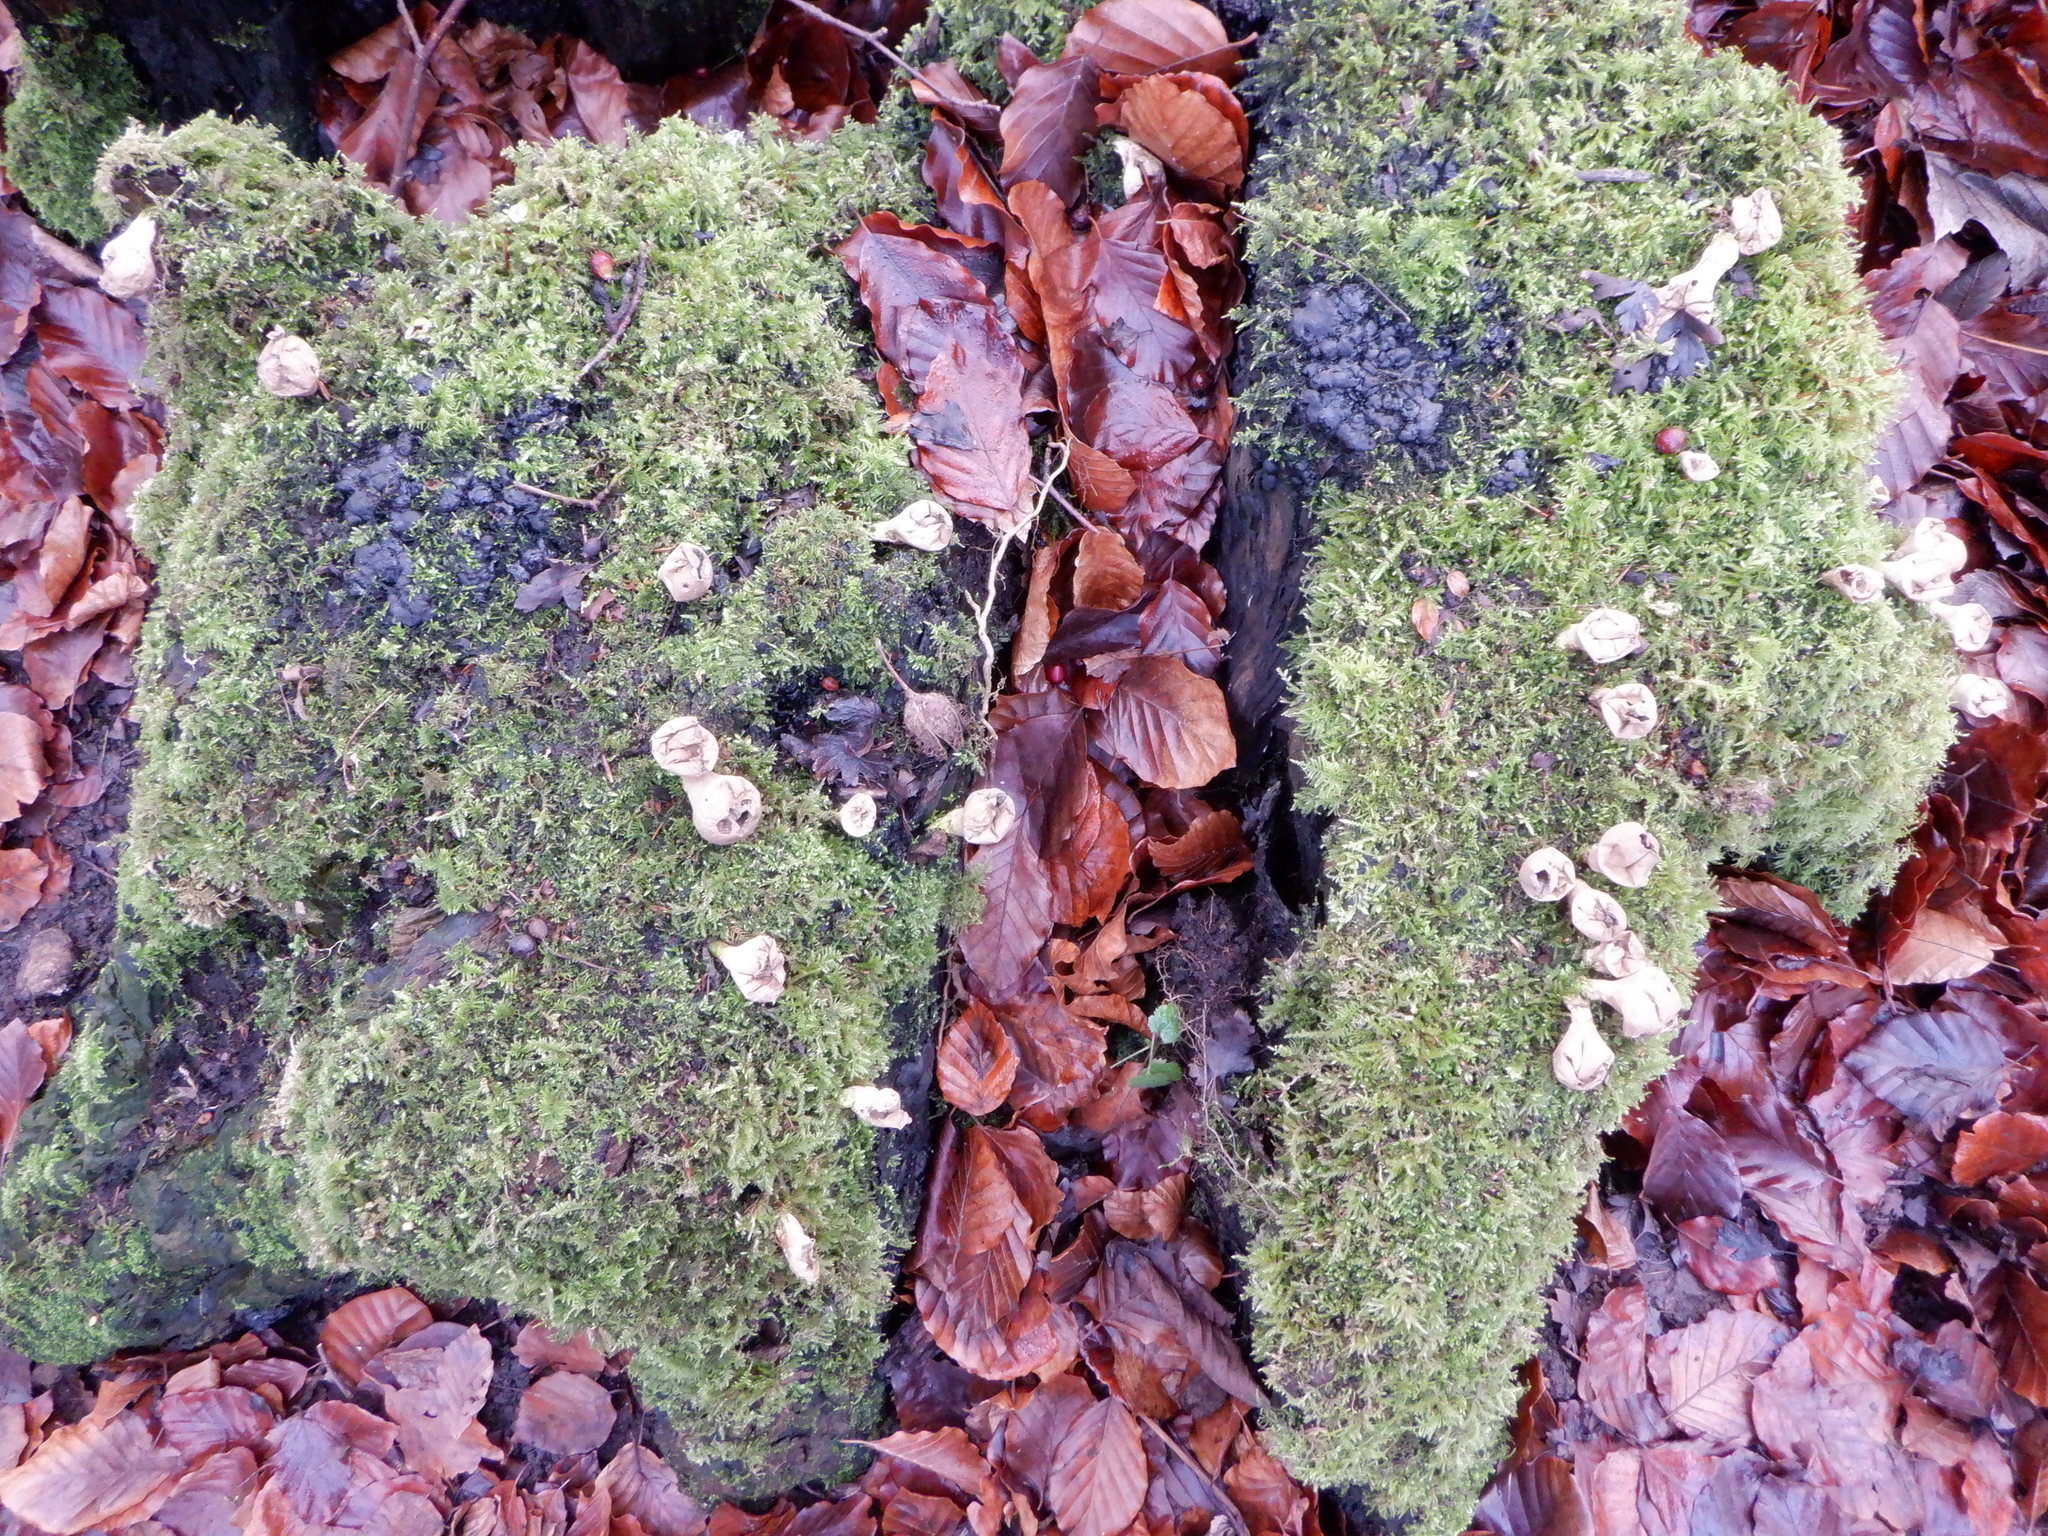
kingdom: Fungi
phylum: Basidiomycota
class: Agaricomycetes
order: Agaricales
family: Lycoperdaceae
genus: Apioperdon
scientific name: Apioperdon pyriforme
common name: Pear-shaped puffball
